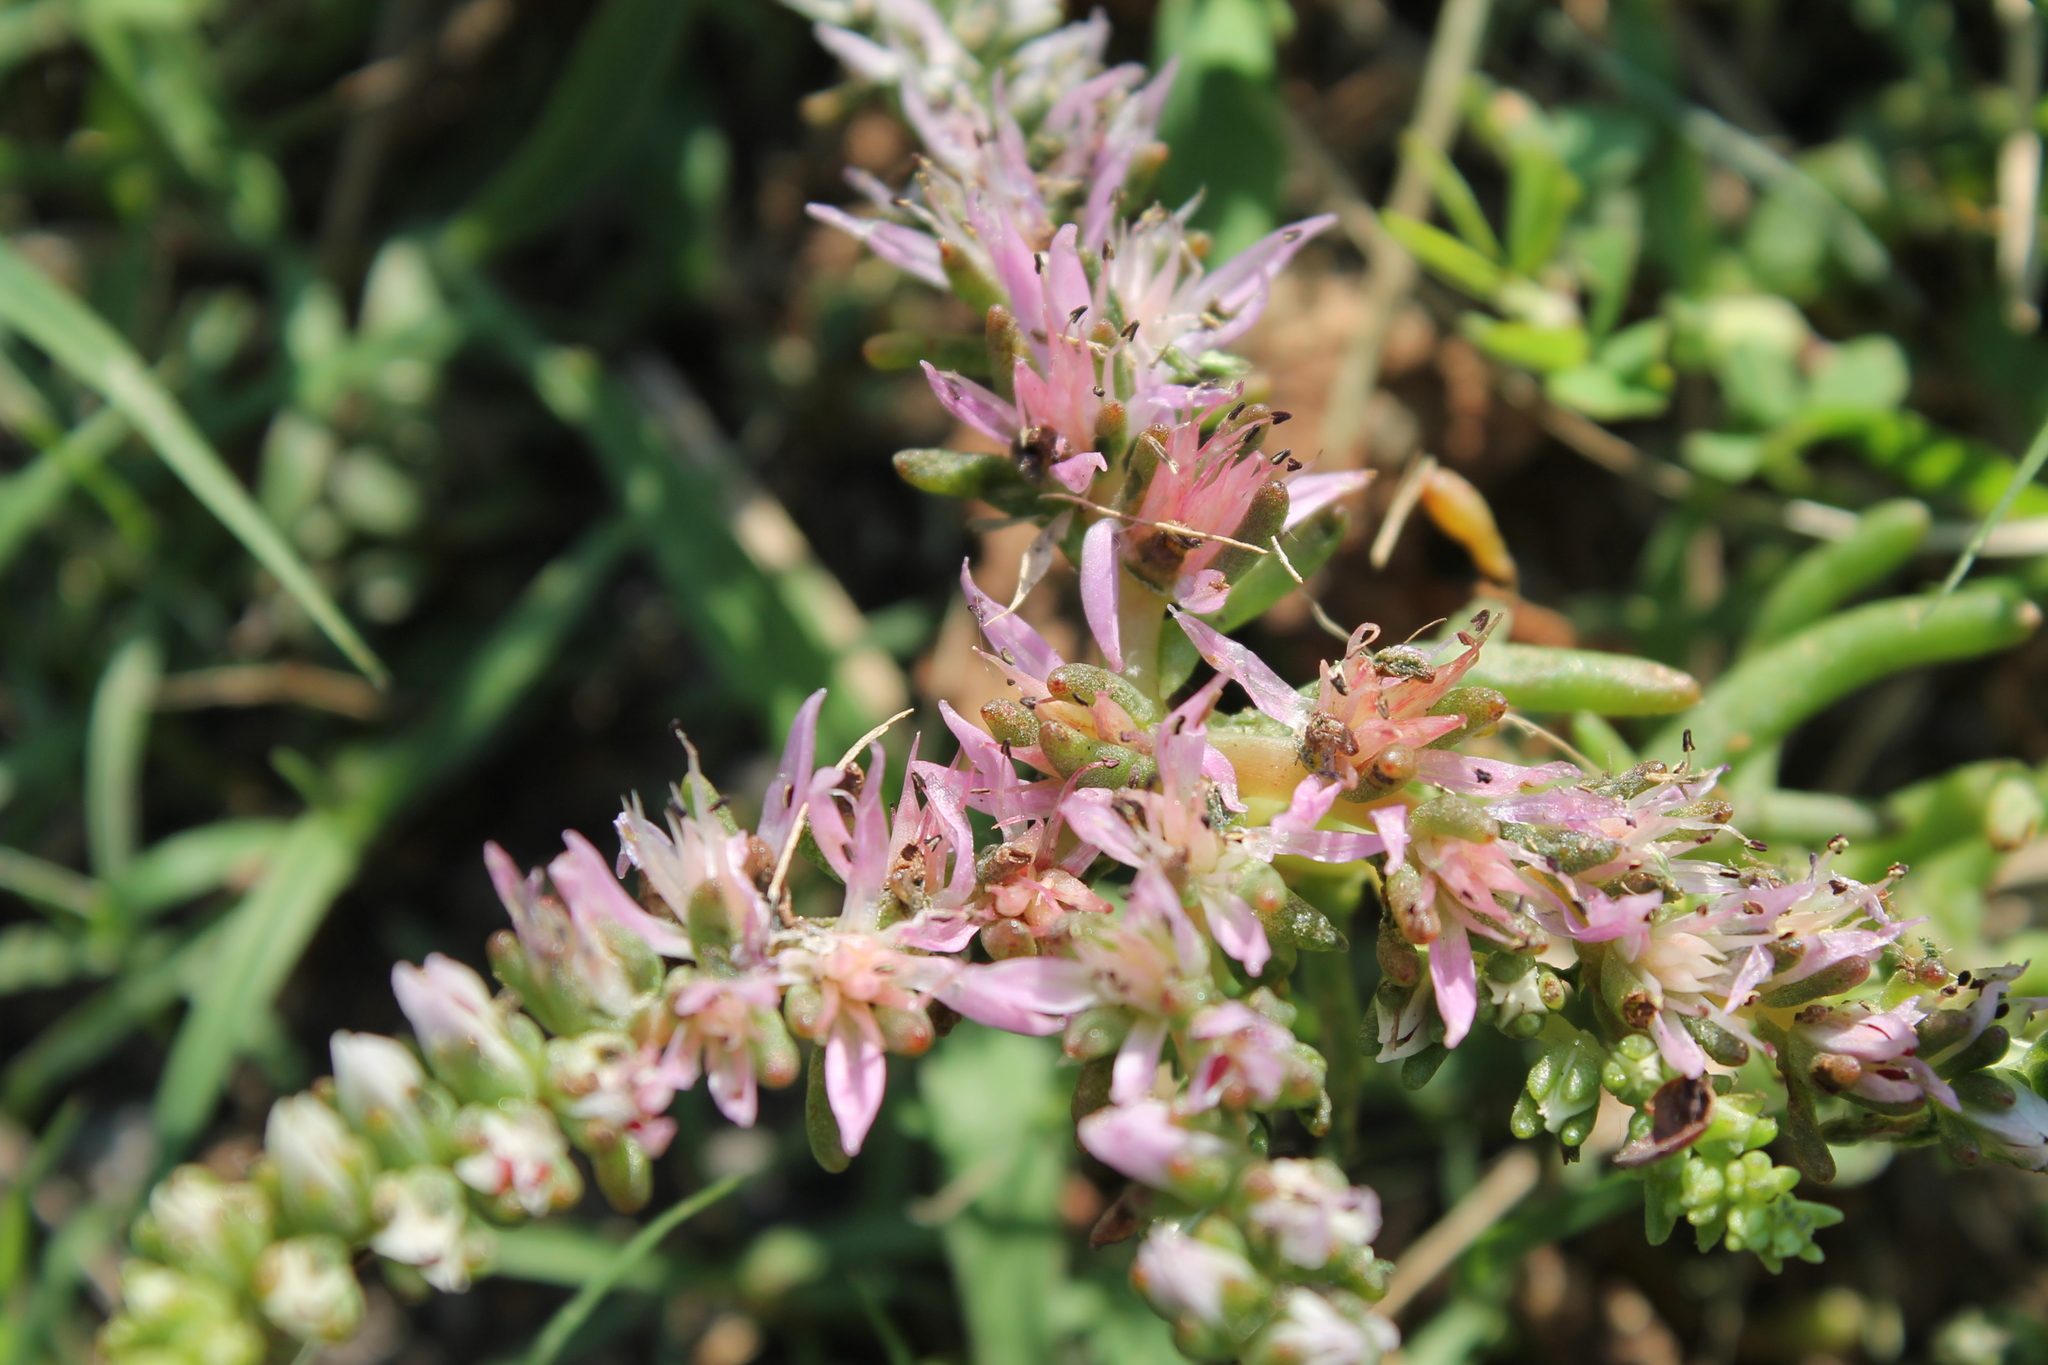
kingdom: Plantae
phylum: Tracheophyta
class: Magnoliopsida
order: Saxifragales
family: Crassulaceae
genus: Sedum
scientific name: Sedum pulchellum
